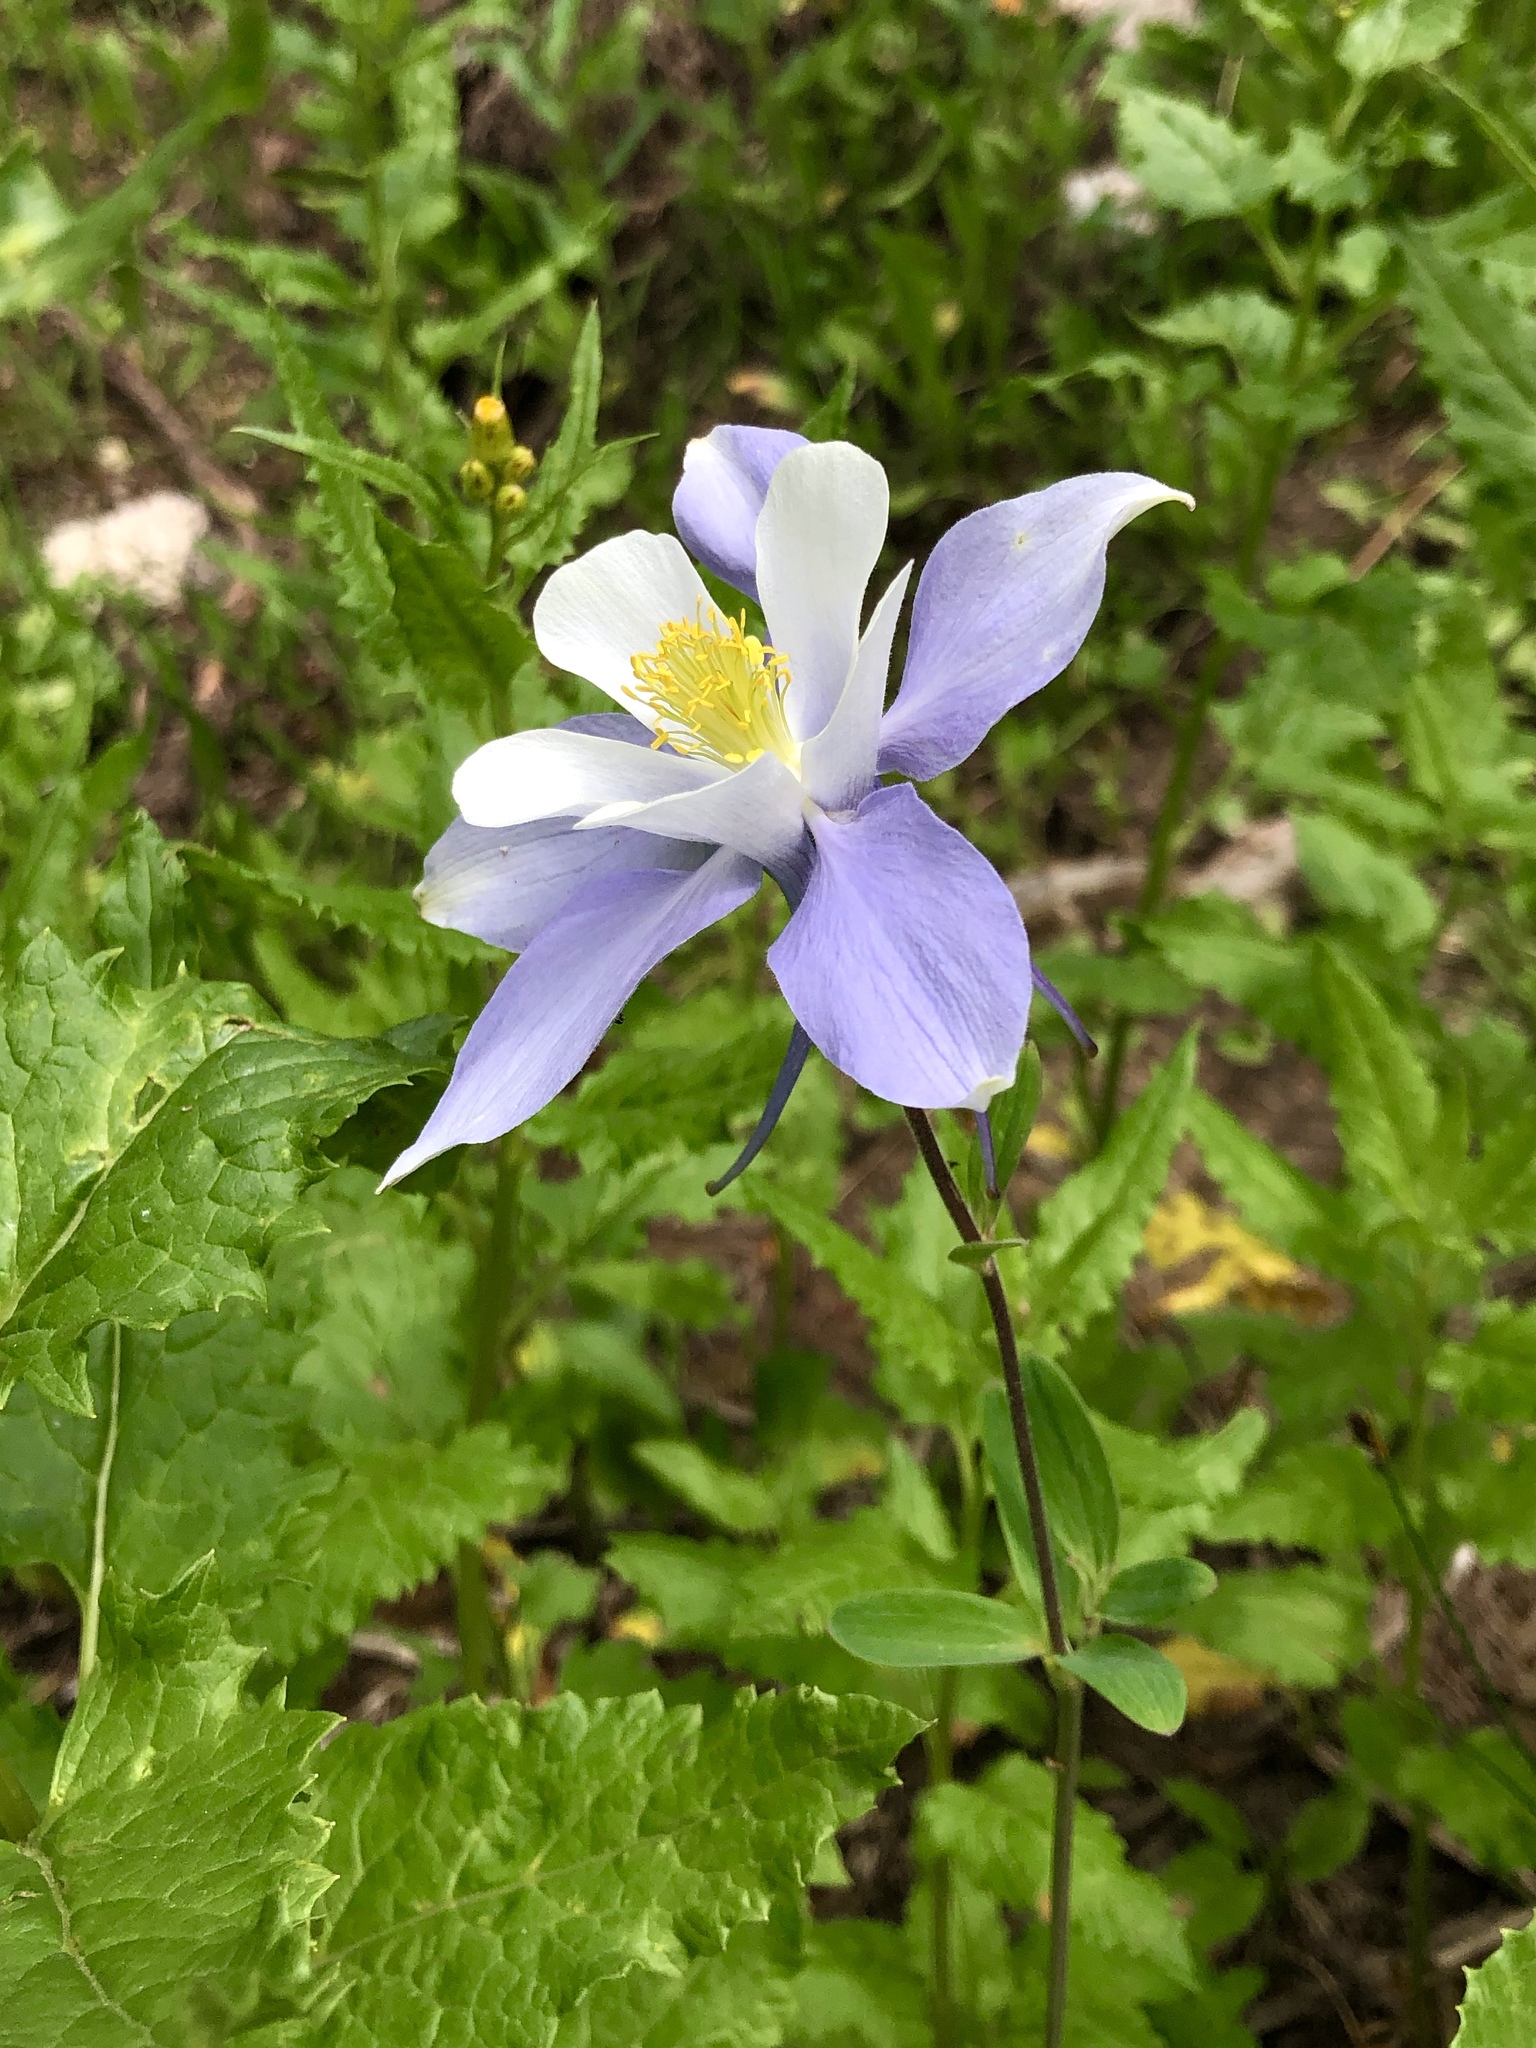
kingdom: Plantae
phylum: Tracheophyta
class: Magnoliopsida
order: Ranunculales
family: Ranunculaceae
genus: Aquilegia
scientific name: Aquilegia coerulea
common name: Rocky mountain columbine
